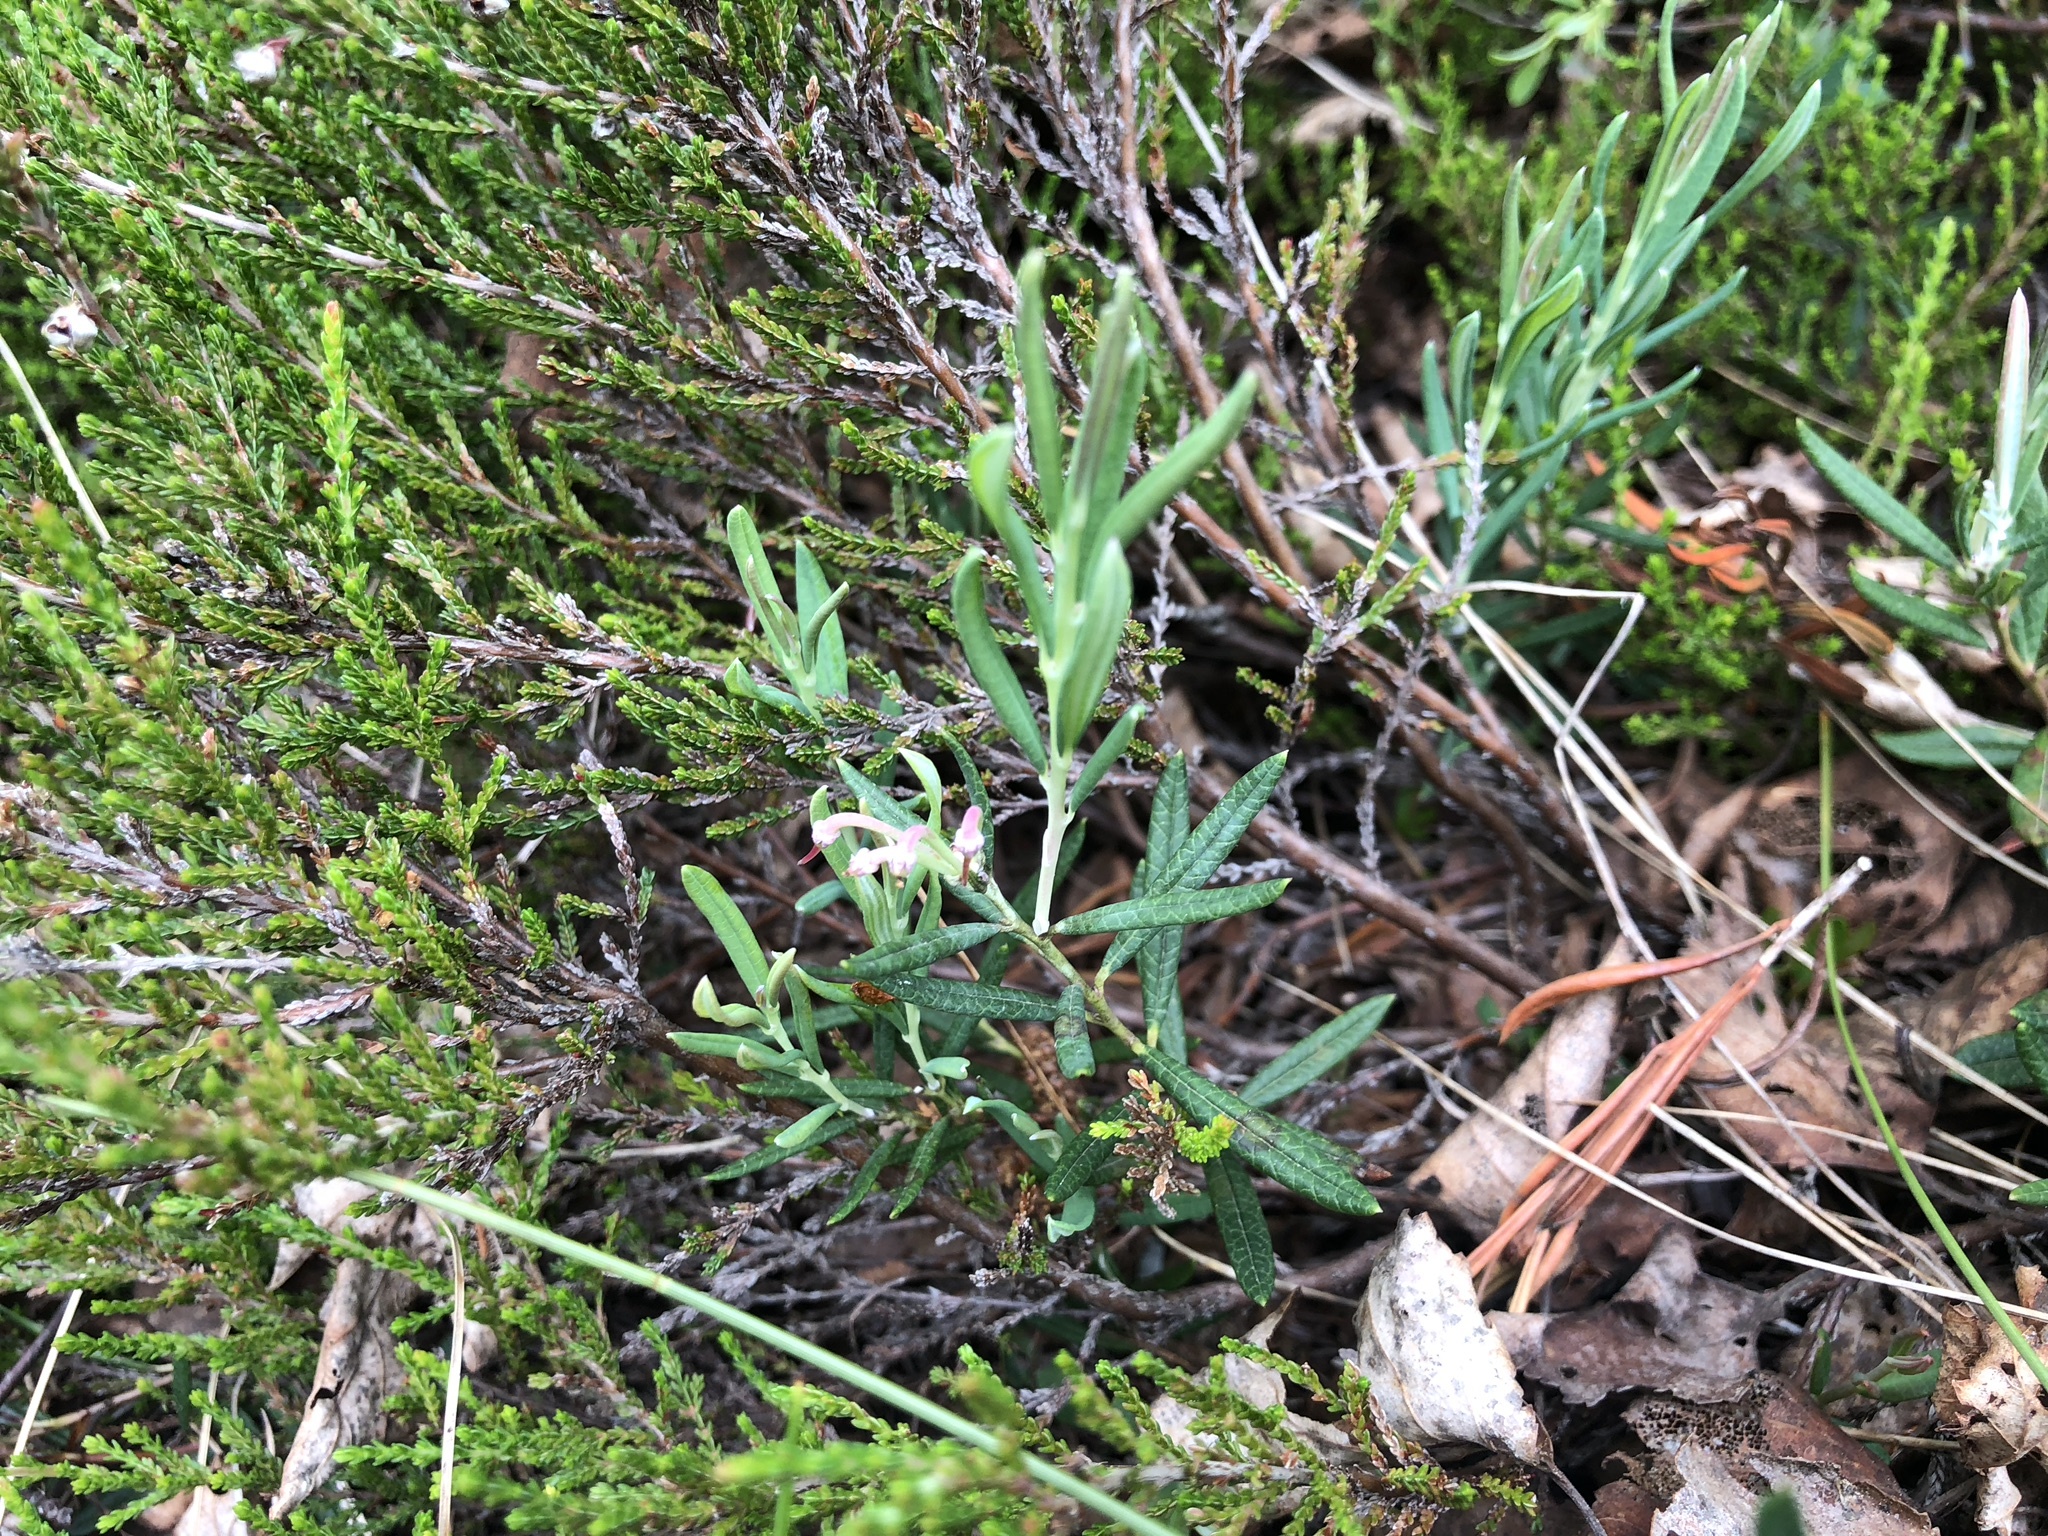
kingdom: Plantae
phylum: Tracheophyta
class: Magnoliopsida
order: Ericales
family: Ericaceae
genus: Andromeda
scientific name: Andromeda polifolia
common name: Bog-rosemary
